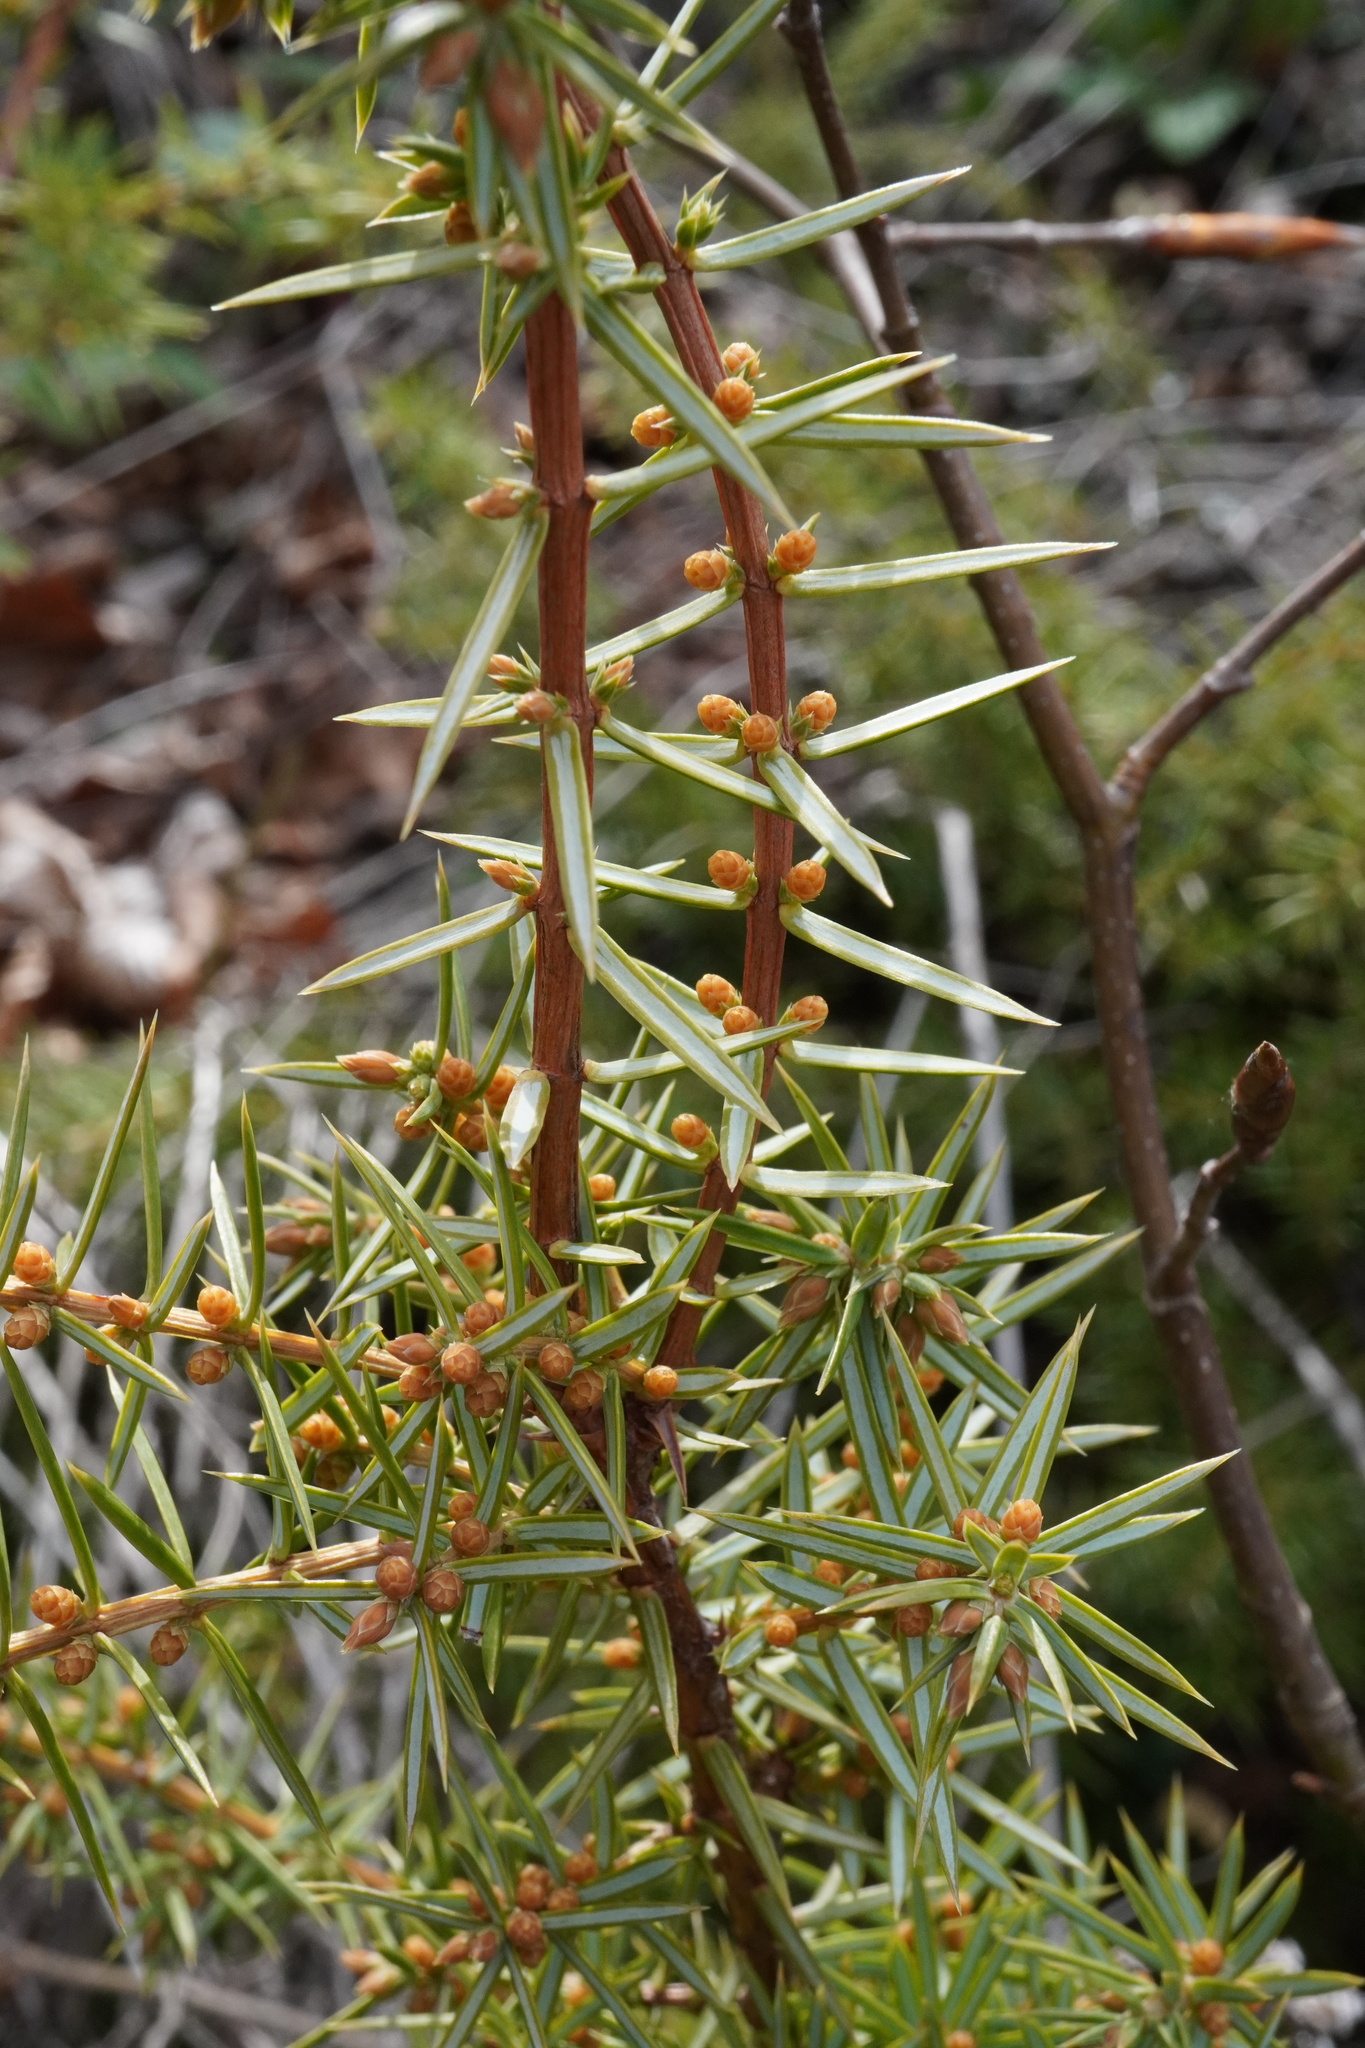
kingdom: Plantae
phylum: Tracheophyta
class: Pinopsida
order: Pinales
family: Cupressaceae
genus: Juniperus
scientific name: Juniperus communis
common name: Common juniper
